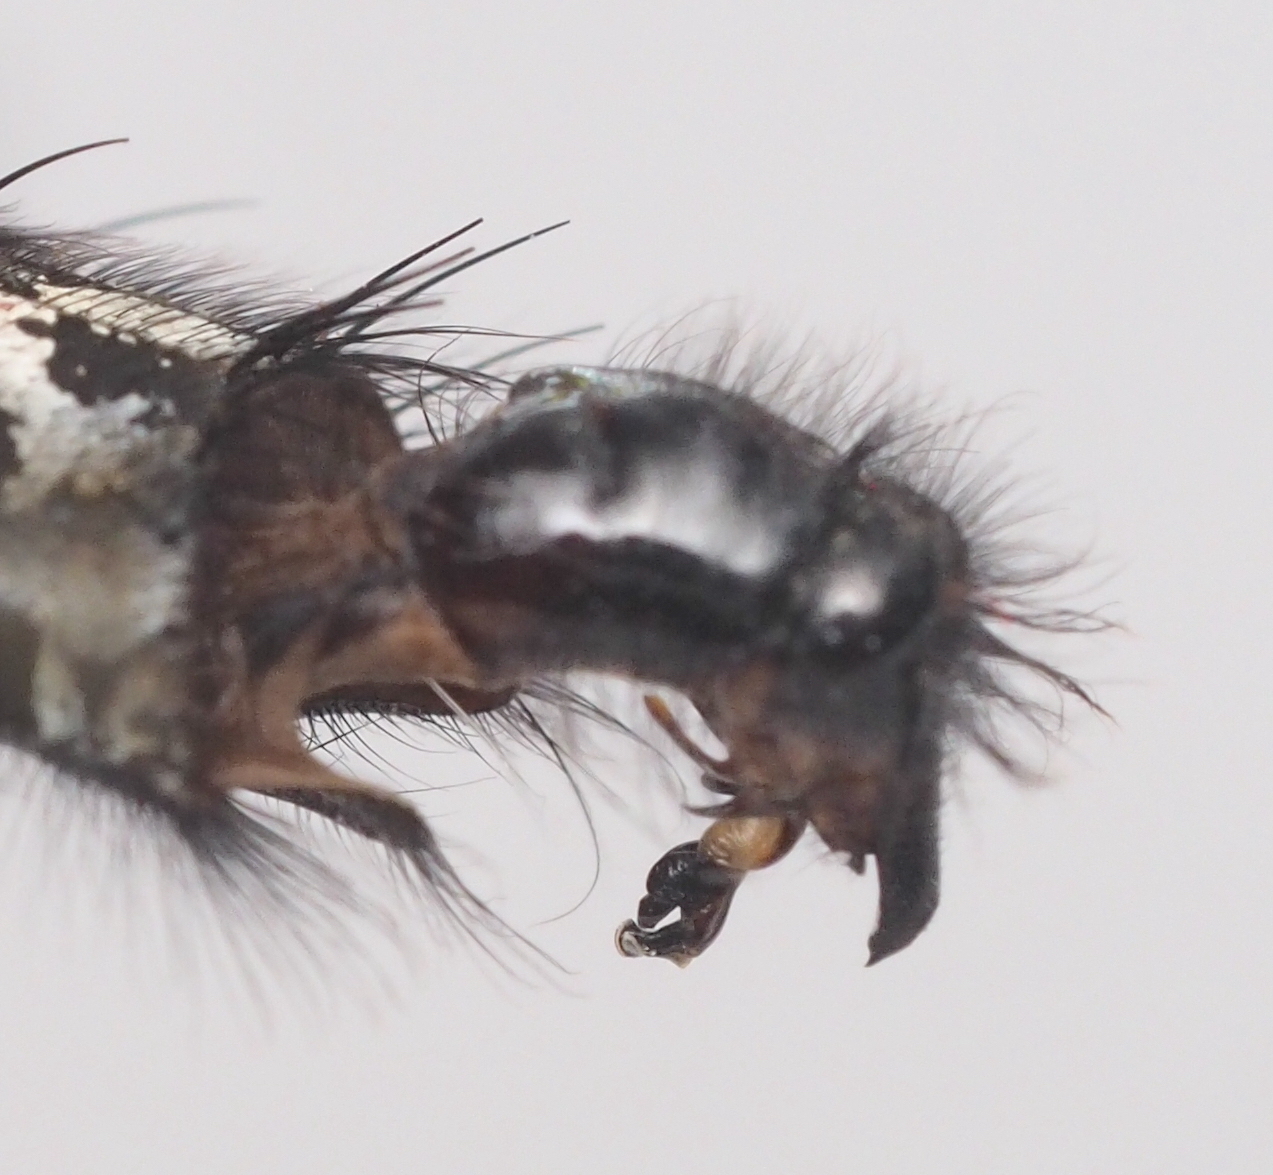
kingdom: Animalia
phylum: Arthropoda
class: Insecta
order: Diptera
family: Sarcophagidae
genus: Sarcophaga
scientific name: Sarcophaga variegata
